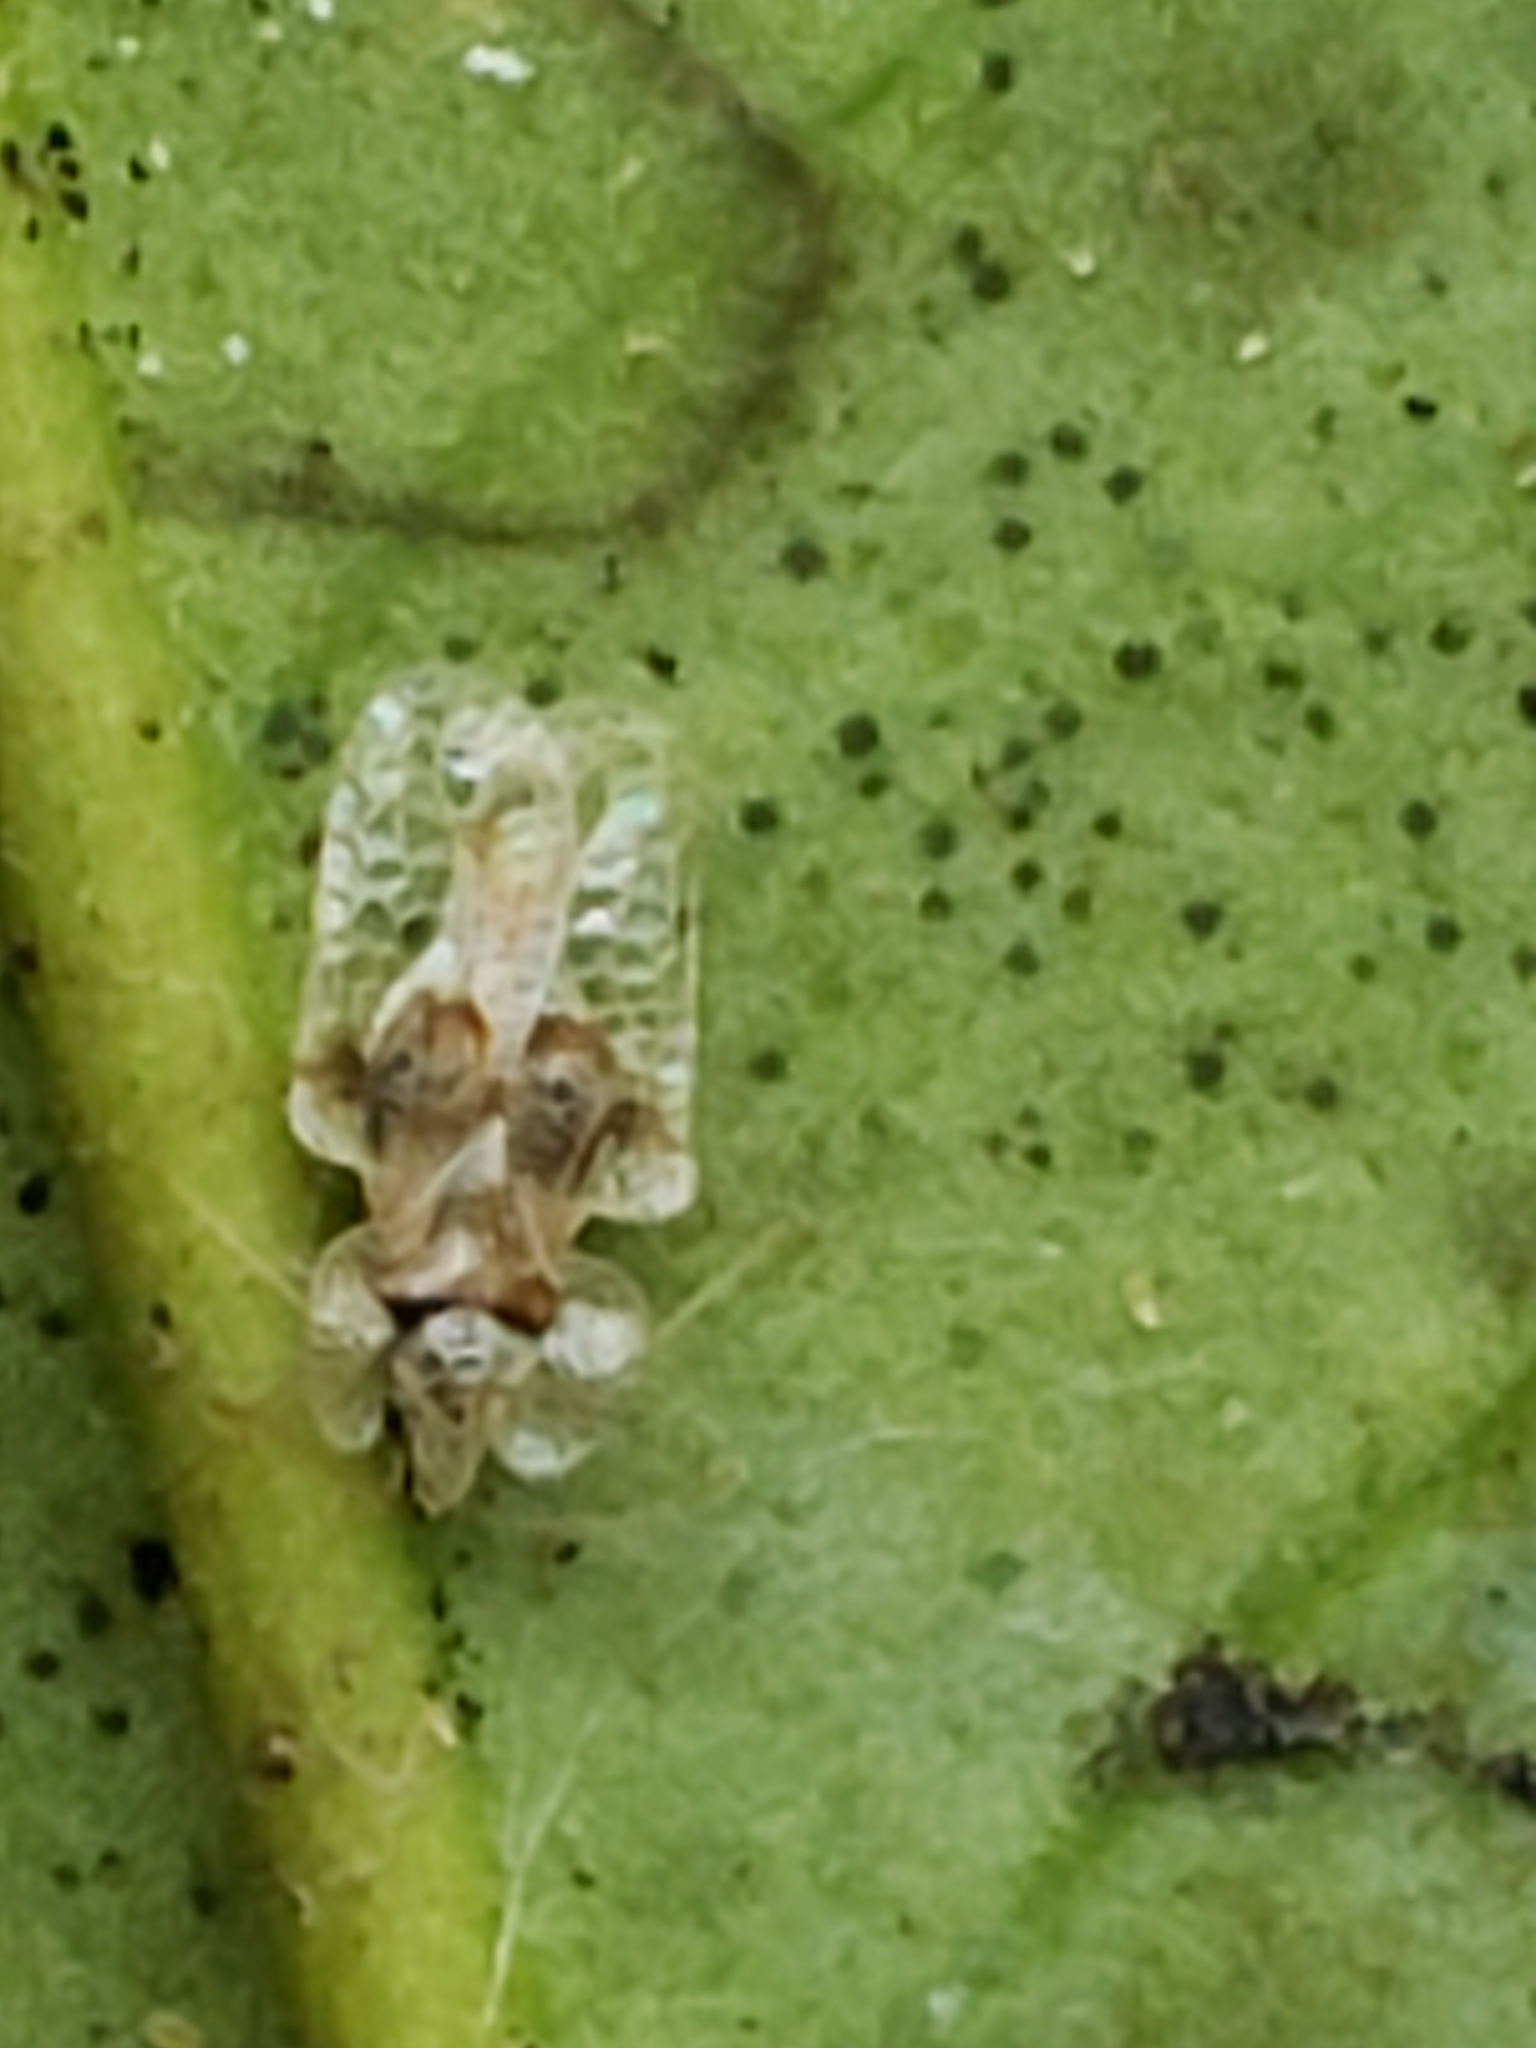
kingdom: Animalia
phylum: Arthropoda
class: Insecta
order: Hemiptera
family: Tingidae
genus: Corythucha
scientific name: Corythucha arcuata
